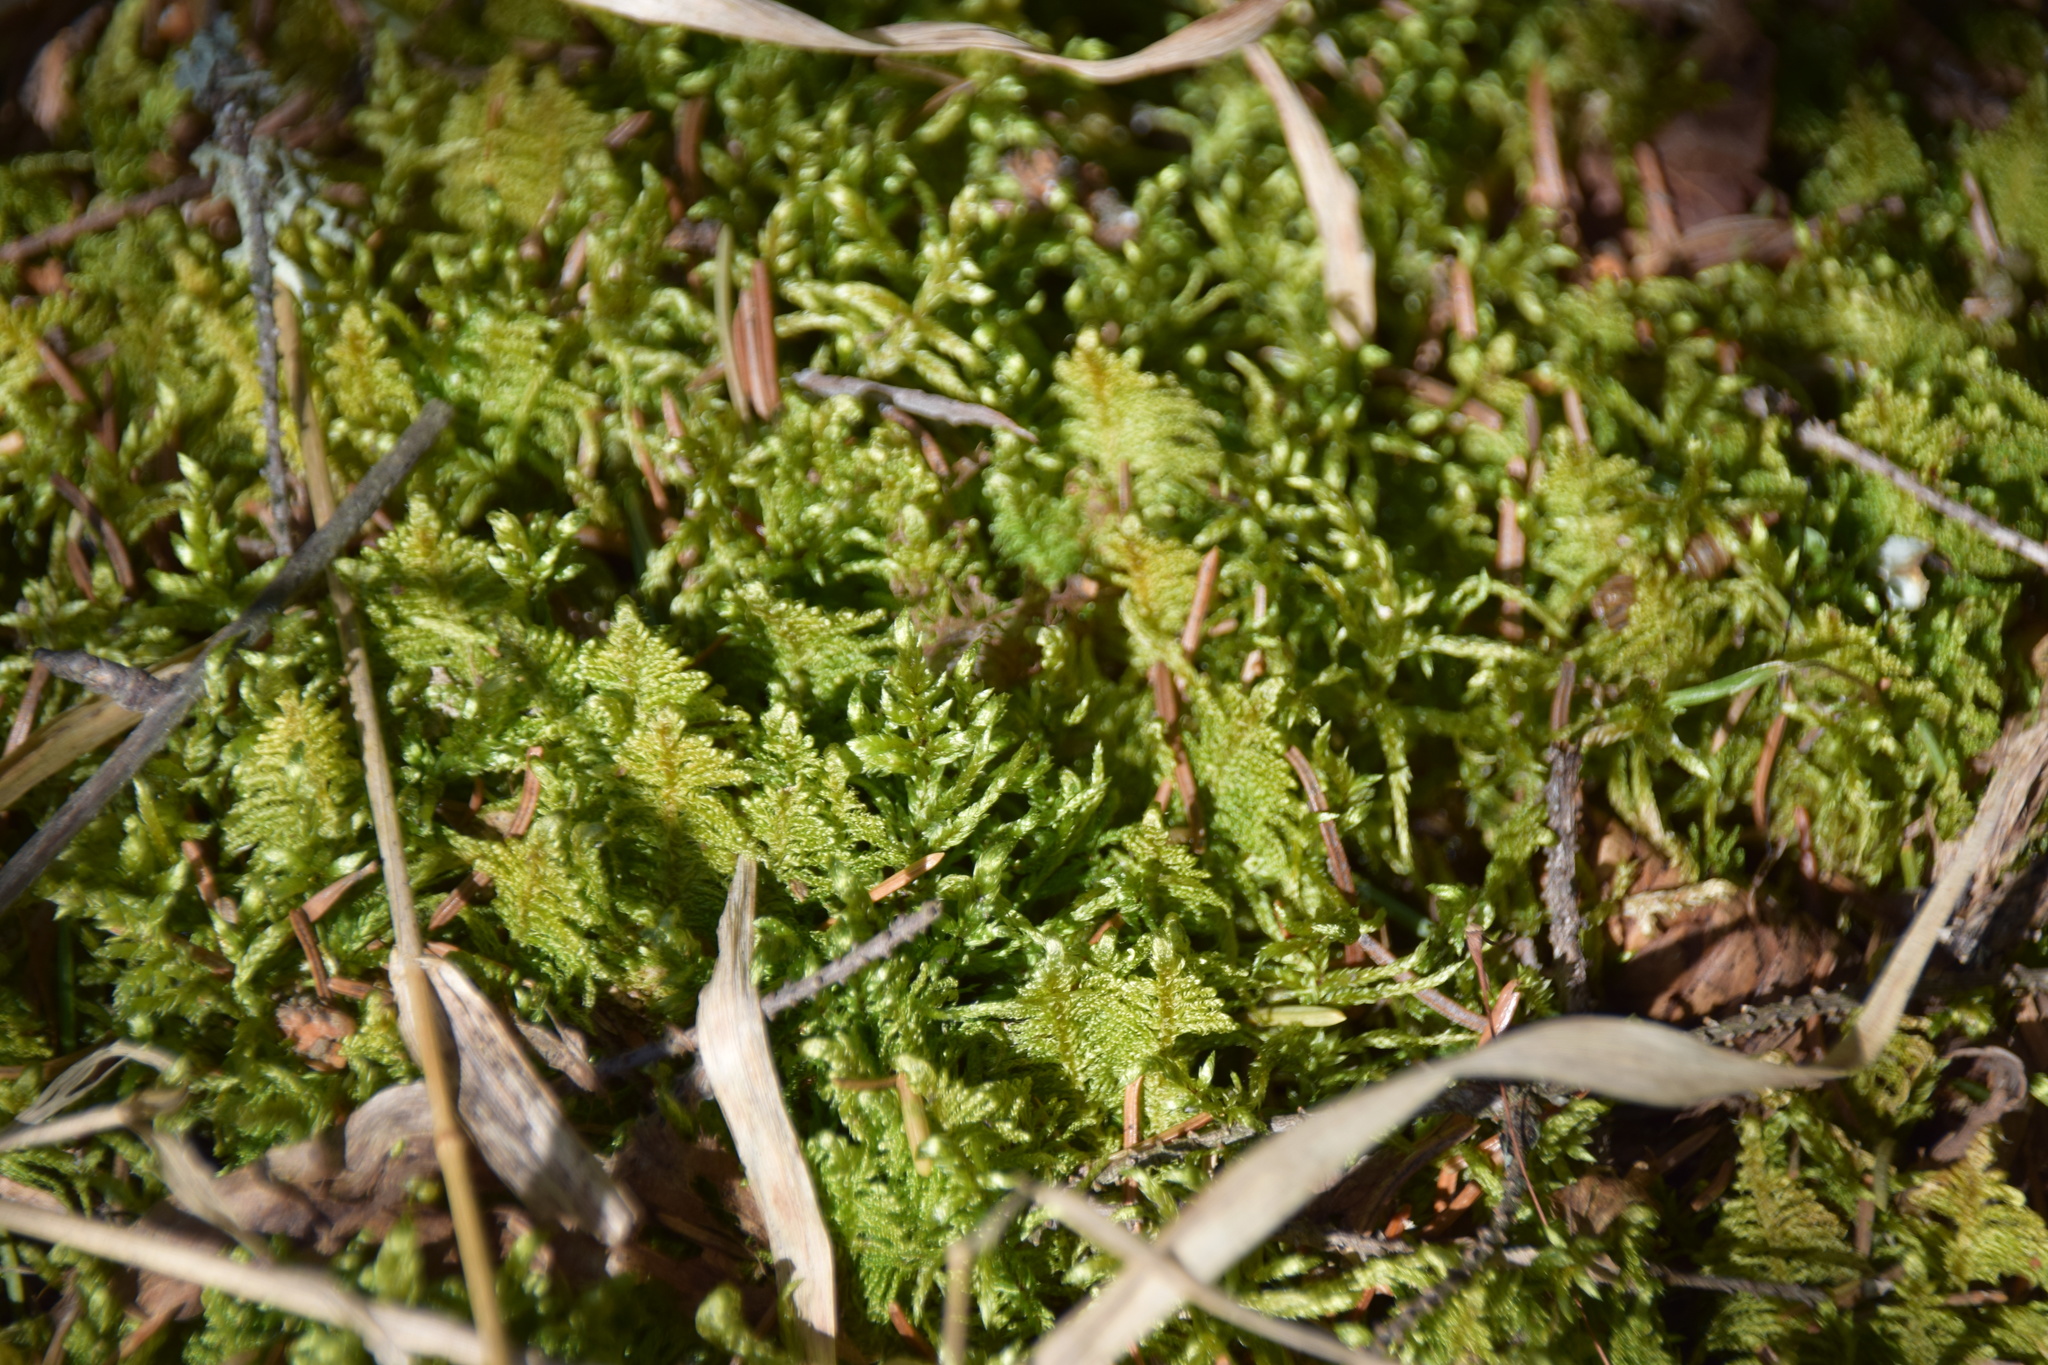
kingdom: Plantae
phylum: Bryophyta
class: Bryopsida
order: Hypnales
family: Pylaisiaceae
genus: Ptilium
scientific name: Ptilium crista-castrensis
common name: Knight's plume moss
